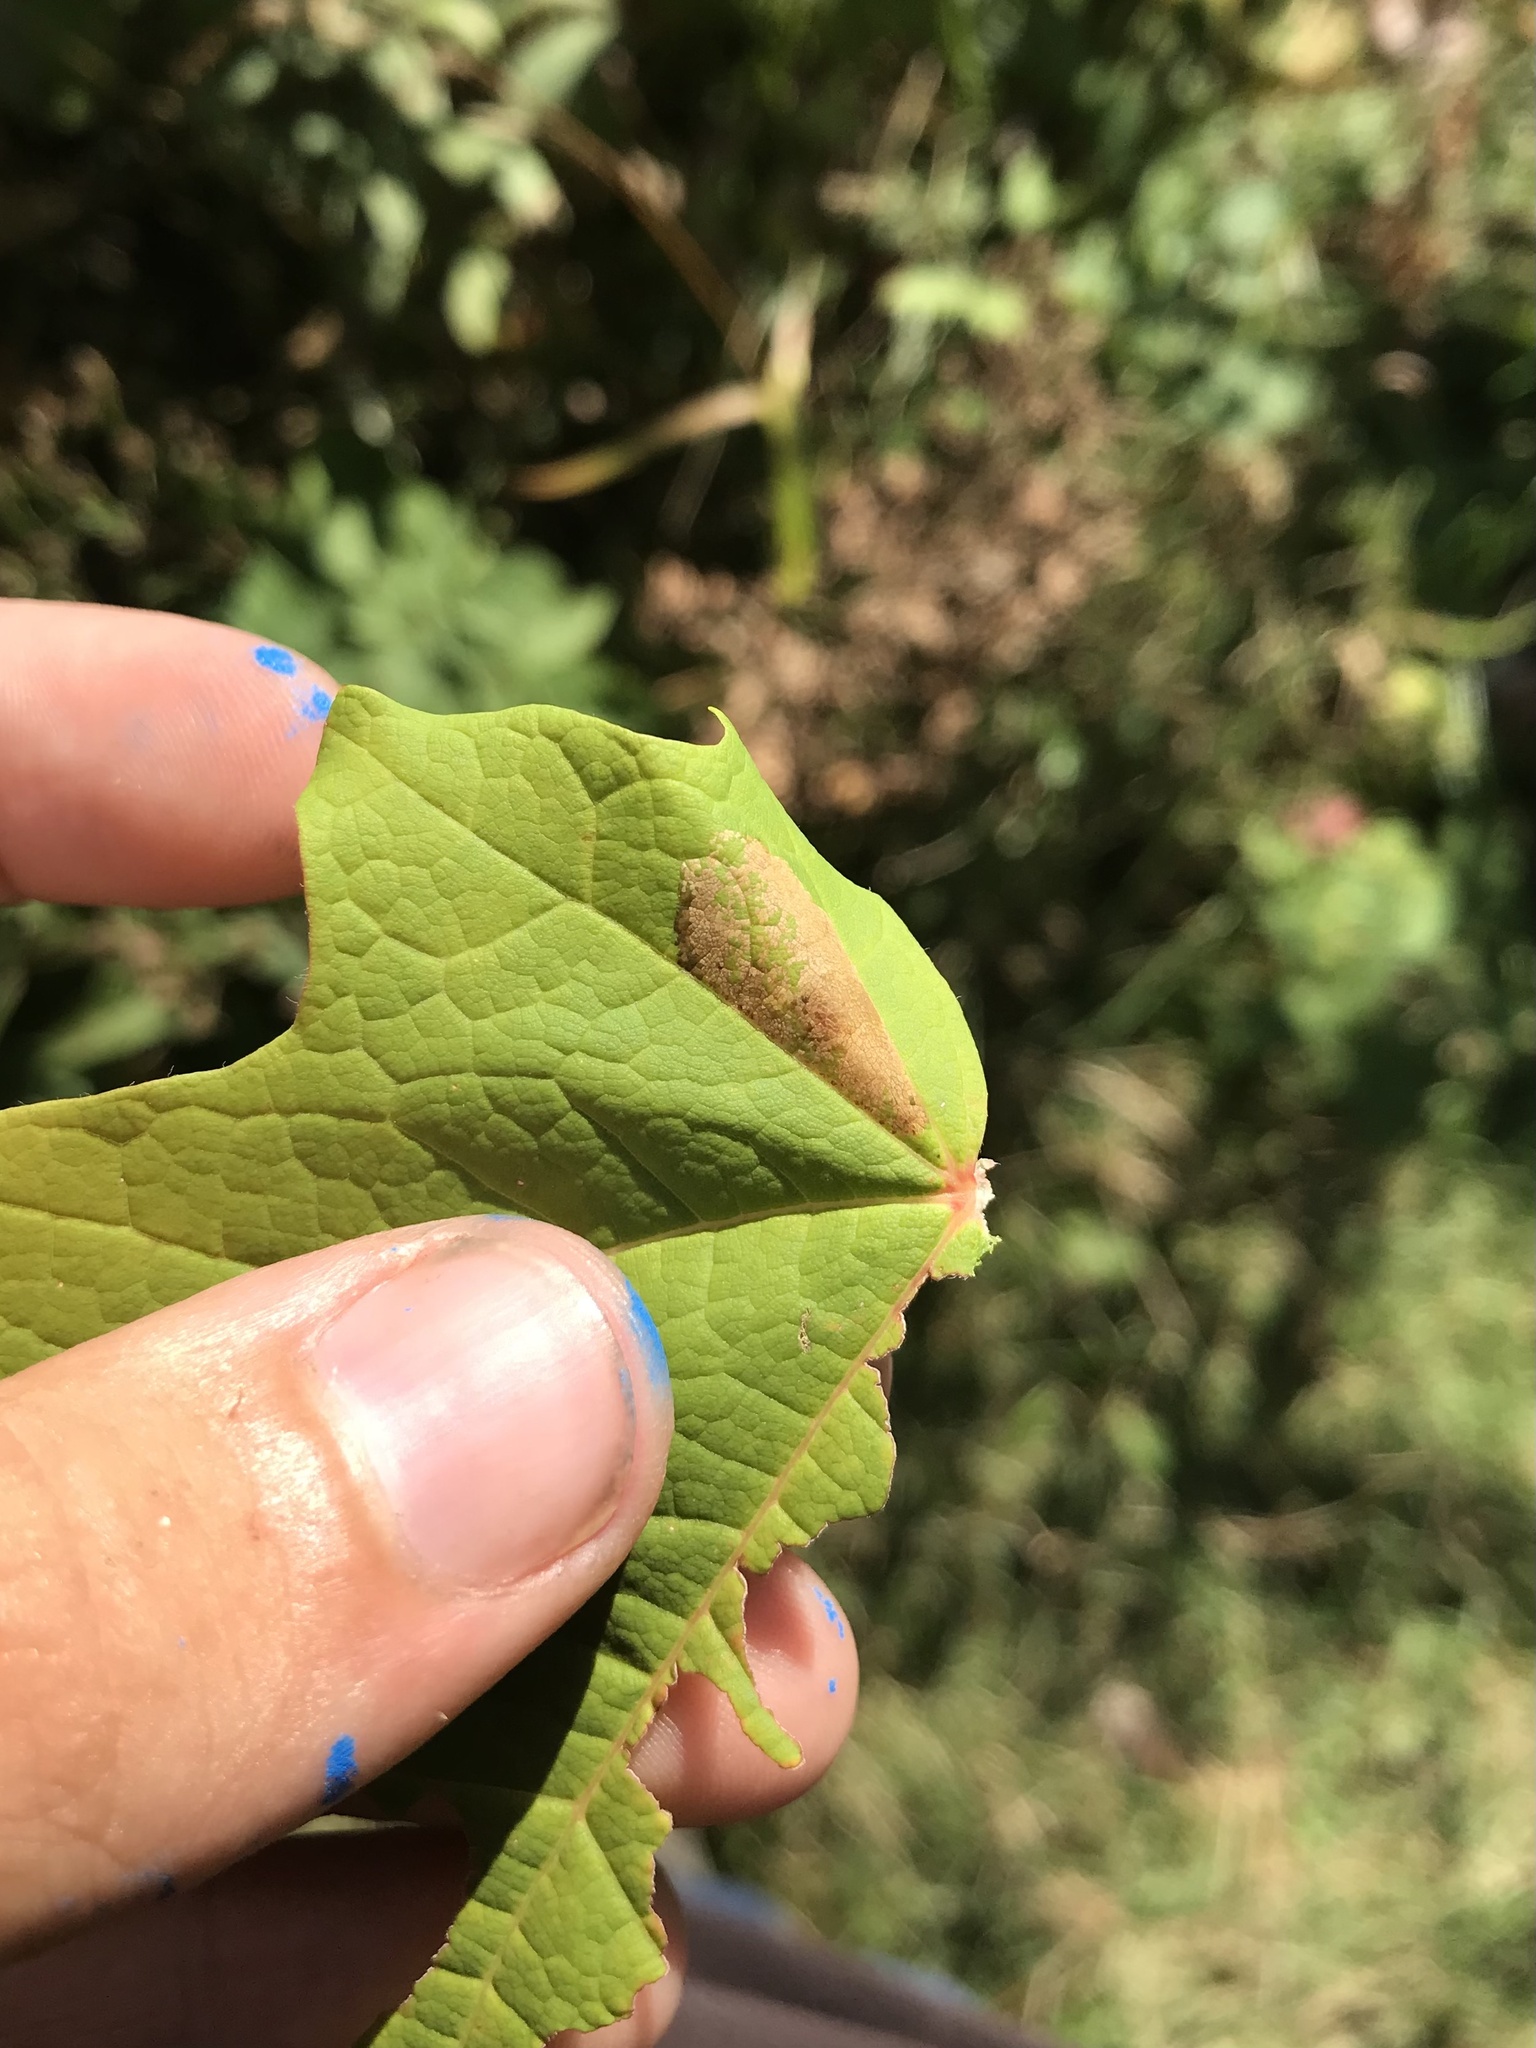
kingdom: Animalia
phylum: Arthropoda
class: Insecta
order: Lepidoptera
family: Gracillariidae
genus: Phyllonorycter
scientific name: Phyllonorycter trinotella
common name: Red maple blotchminer
